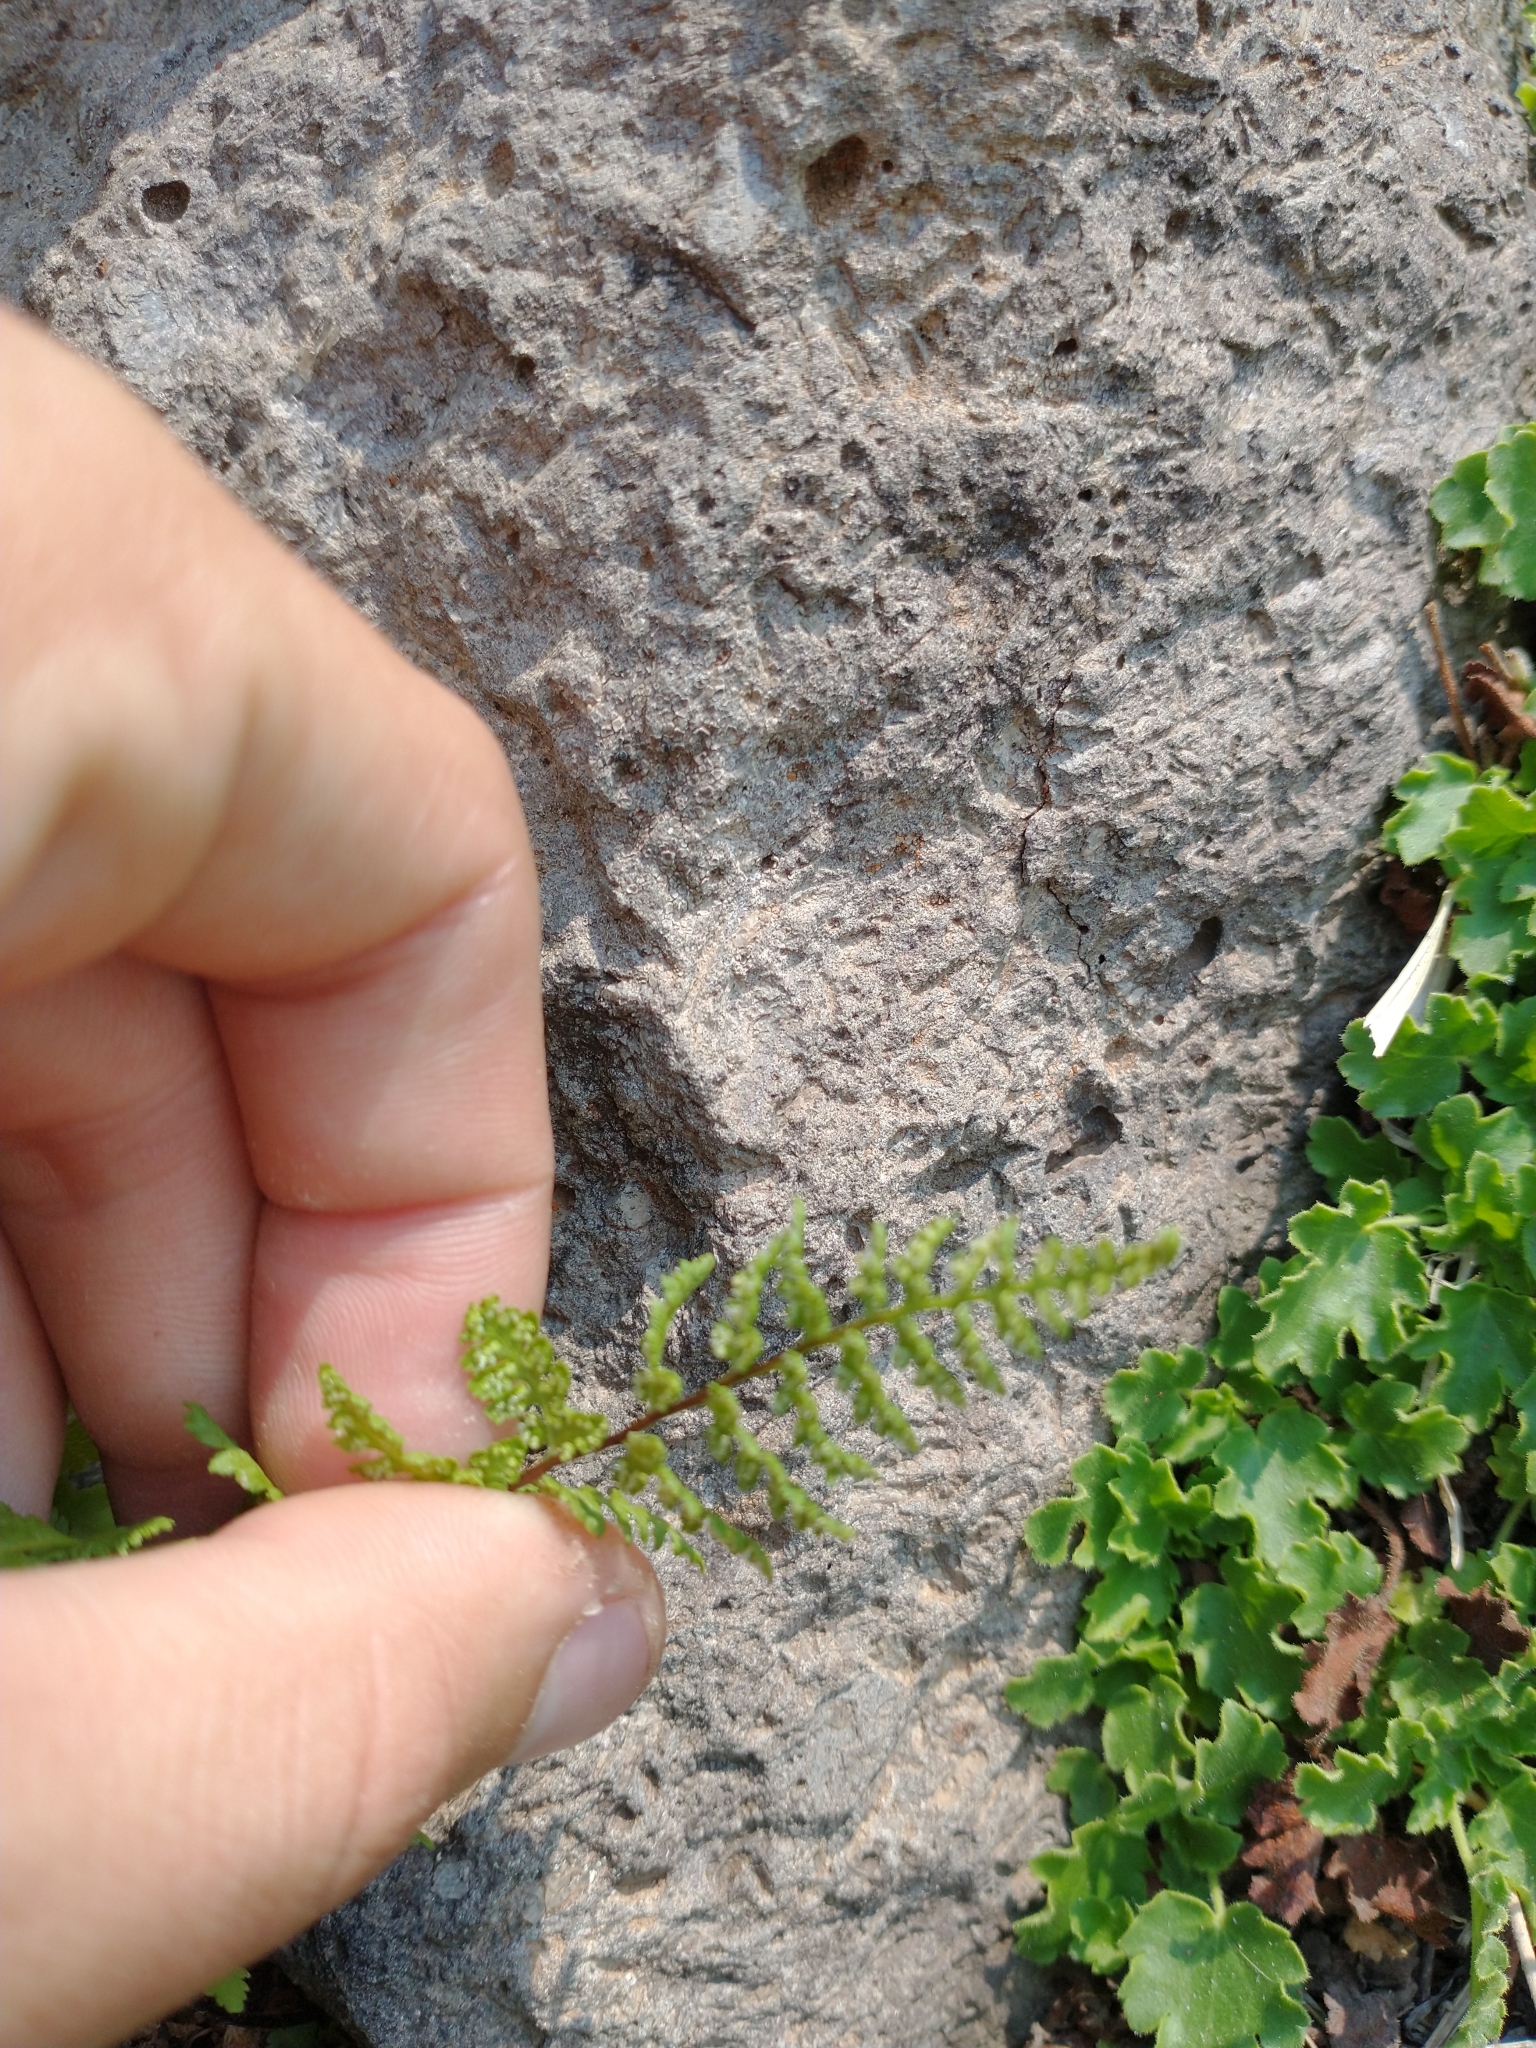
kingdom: Plantae
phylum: Tracheophyta
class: Polypodiopsida
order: Polypodiales
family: Cystopteridaceae
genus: Cystopteris
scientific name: Cystopteris fragilis
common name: Brittle bladder fern
